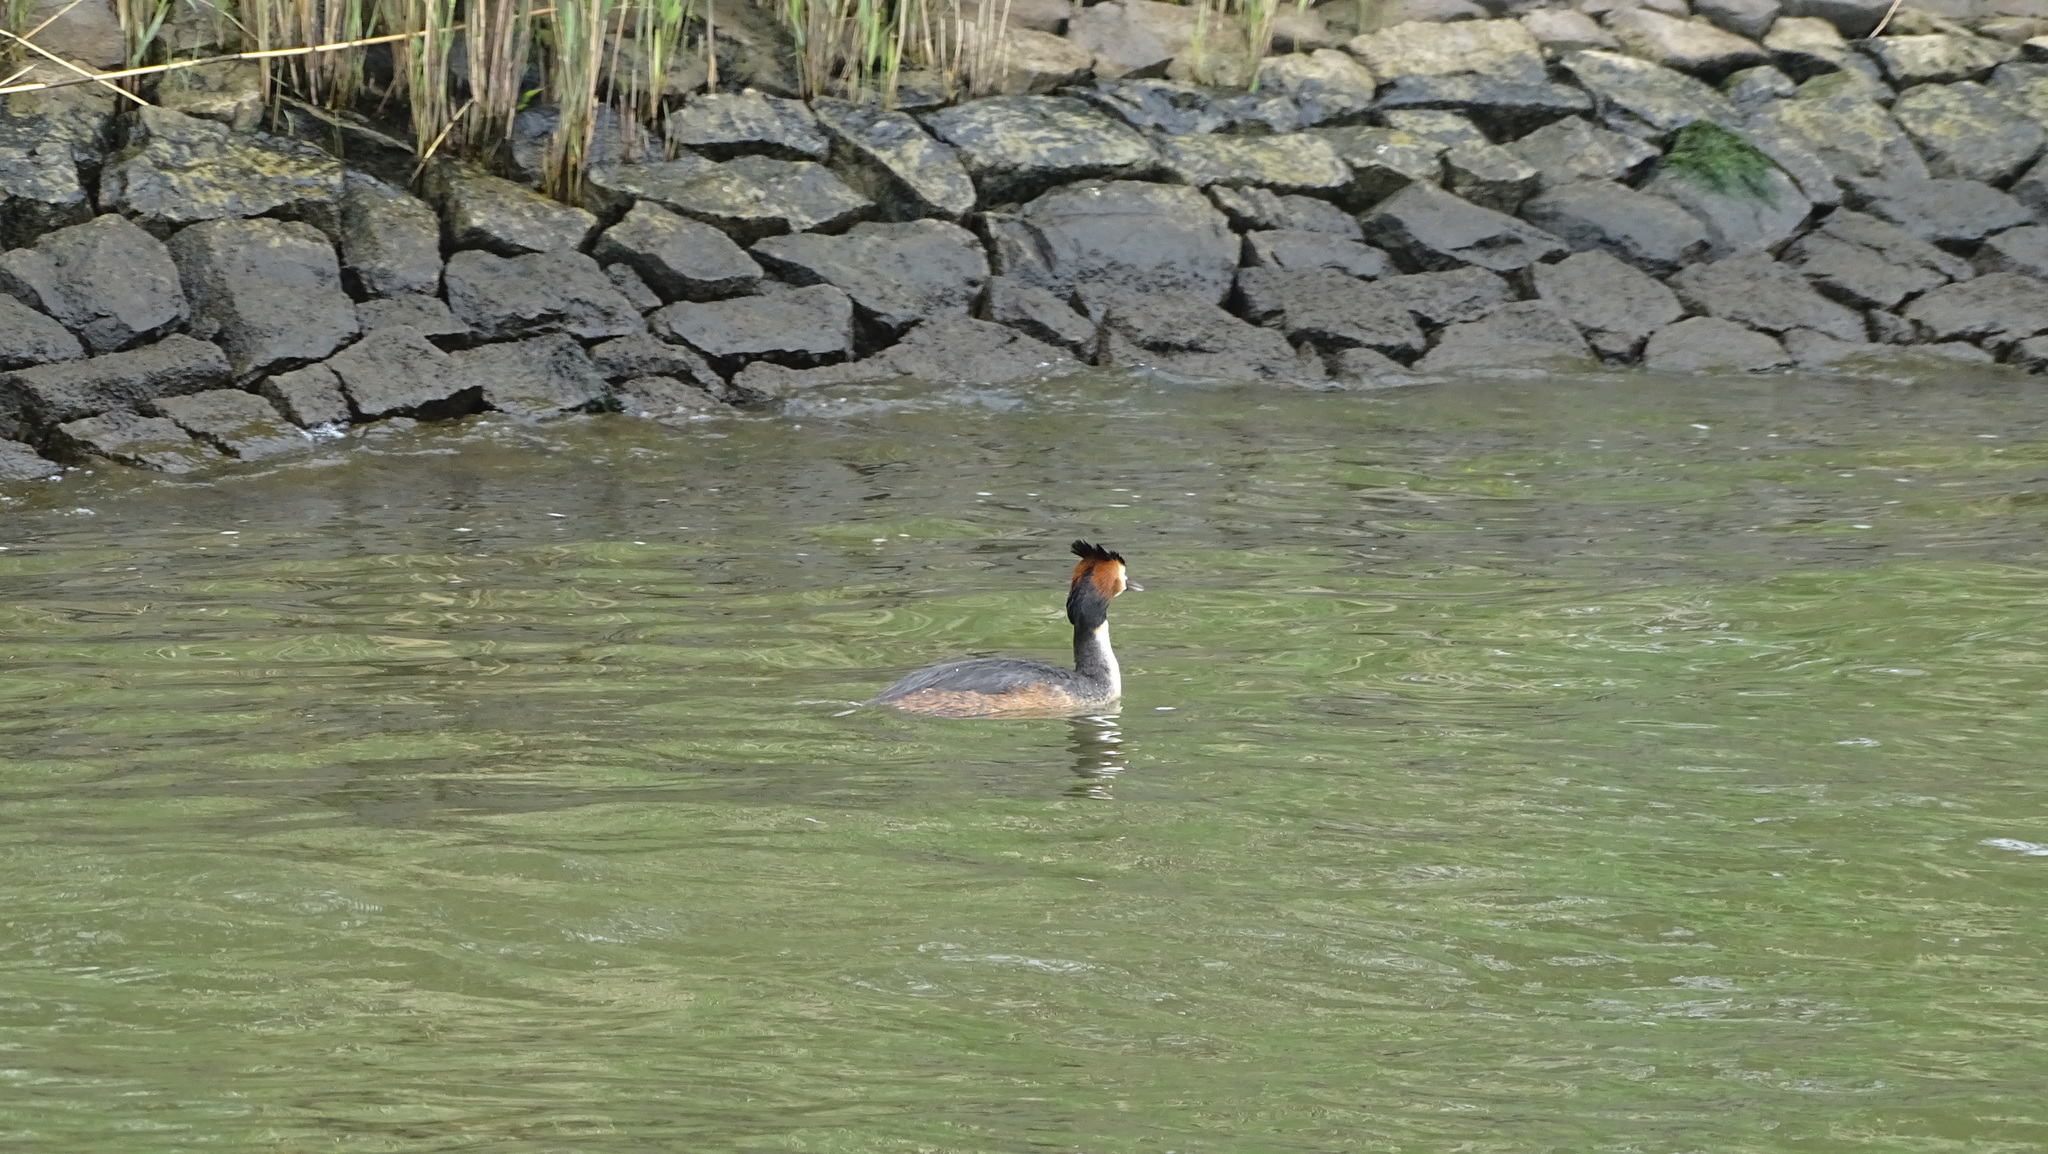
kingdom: Animalia
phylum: Chordata
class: Aves
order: Podicipediformes
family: Podicipedidae
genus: Podiceps
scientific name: Podiceps cristatus
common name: Great crested grebe
